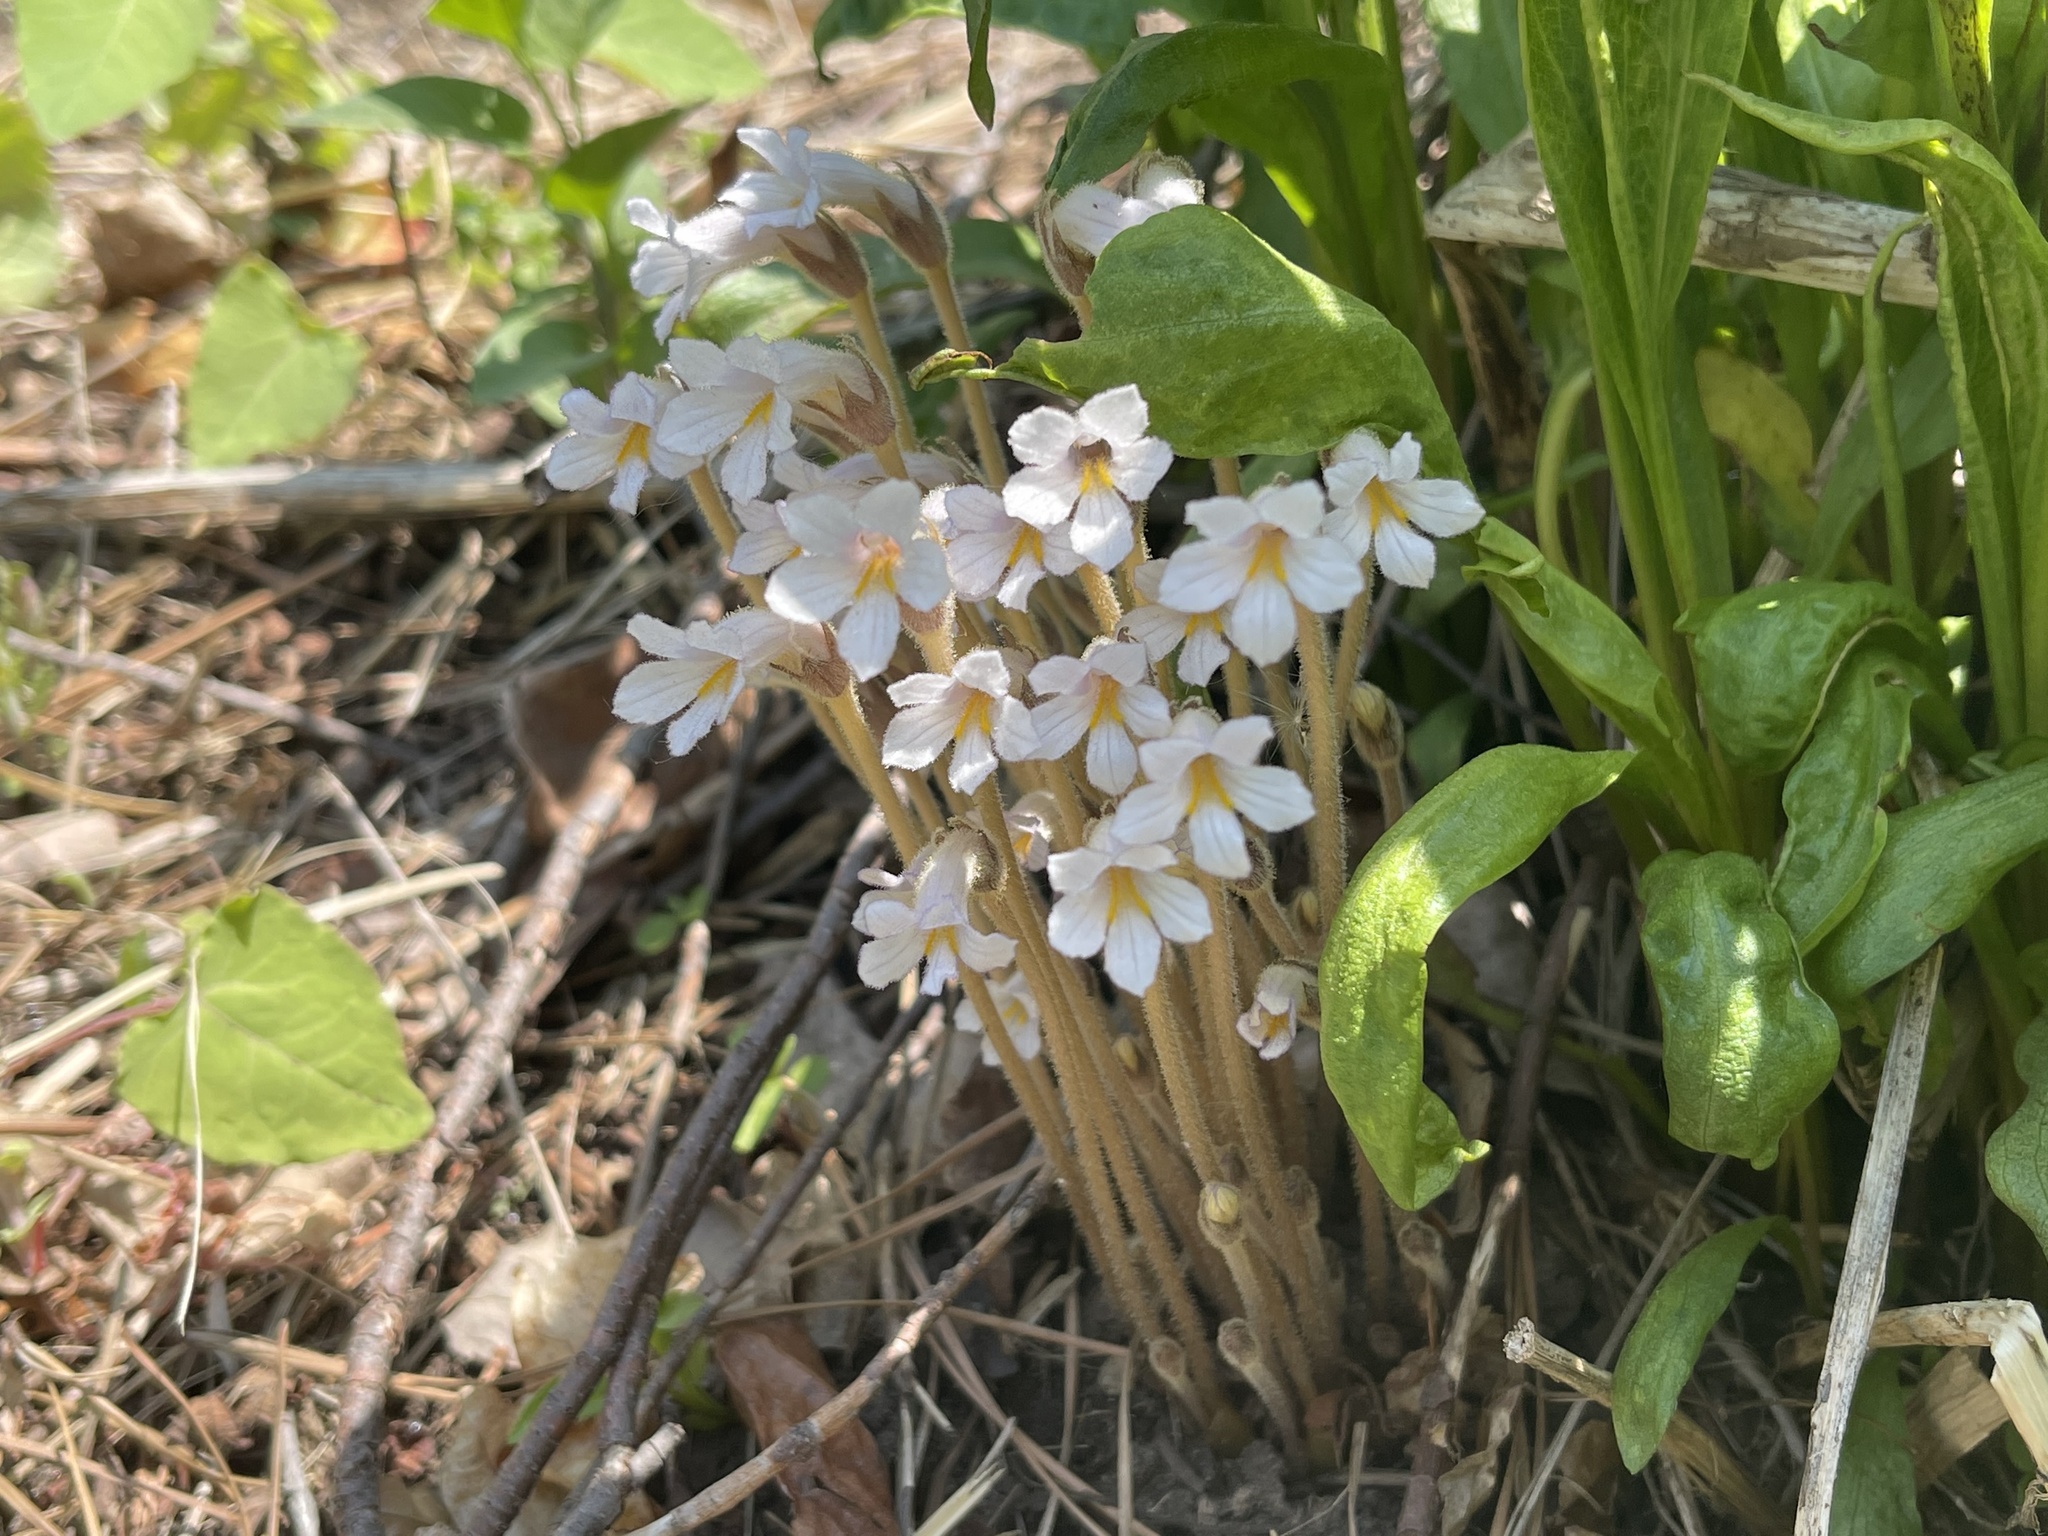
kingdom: Plantae
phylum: Tracheophyta
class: Magnoliopsida
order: Lamiales
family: Orobanchaceae
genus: Aphyllon
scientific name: Aphyllon uniflorum
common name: One-flowered broomrape
